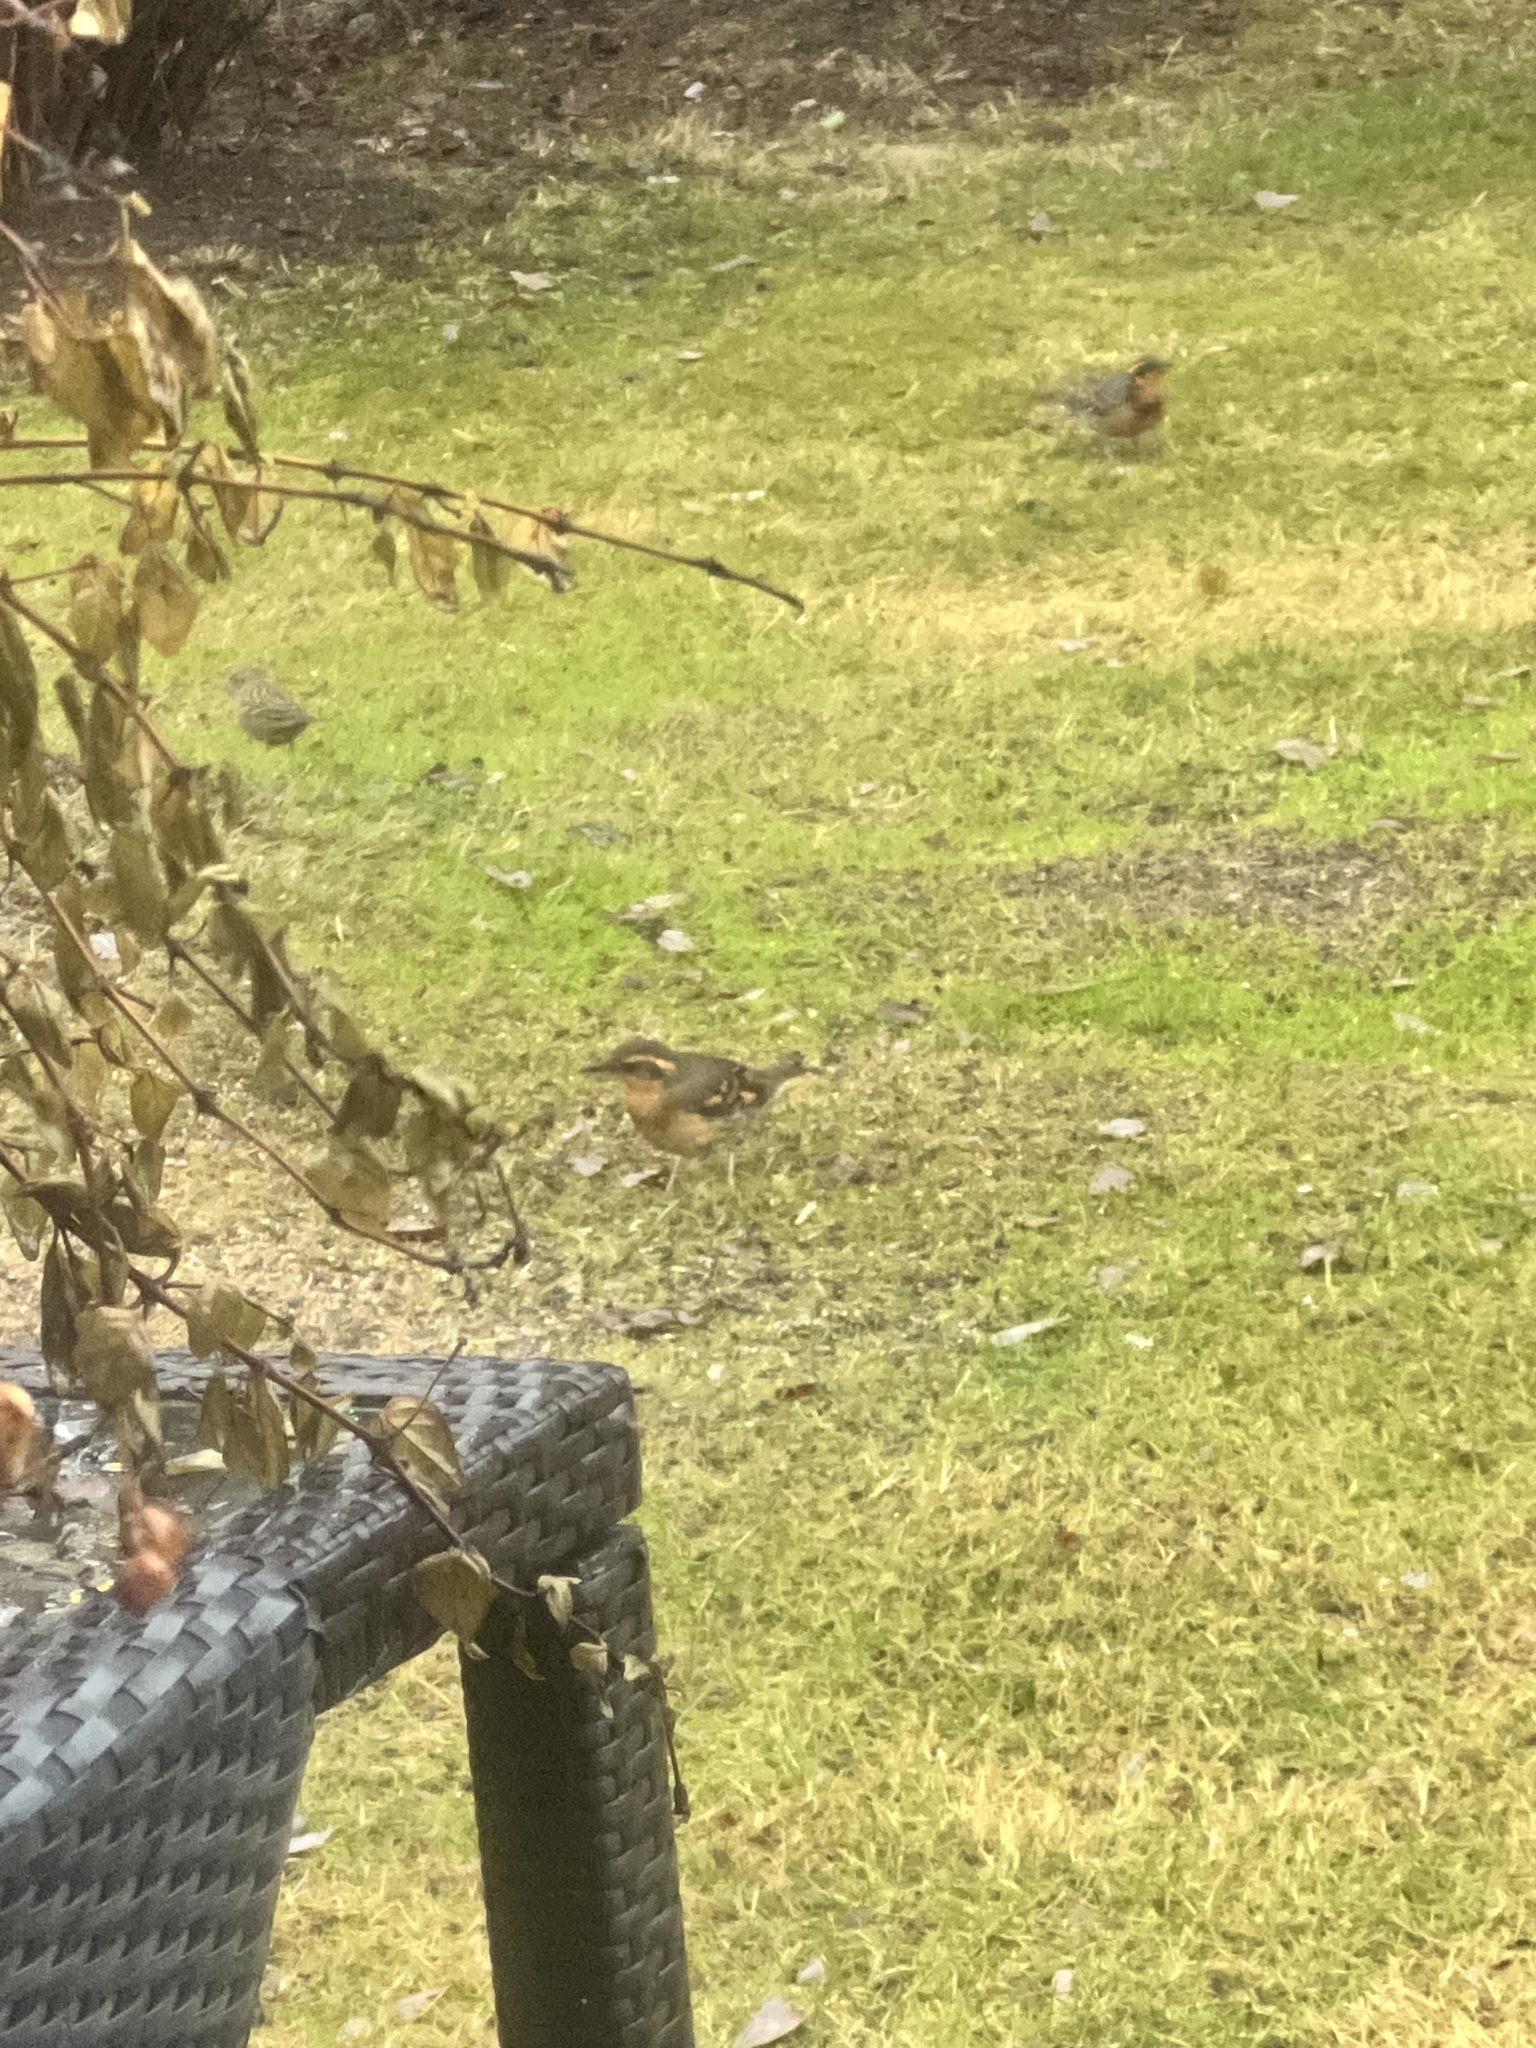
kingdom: Animalia
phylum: Chordata
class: Aves
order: Passeriformes
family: Turdidae
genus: Ixoreus
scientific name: Ixoreus naevius
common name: Varied thrush
